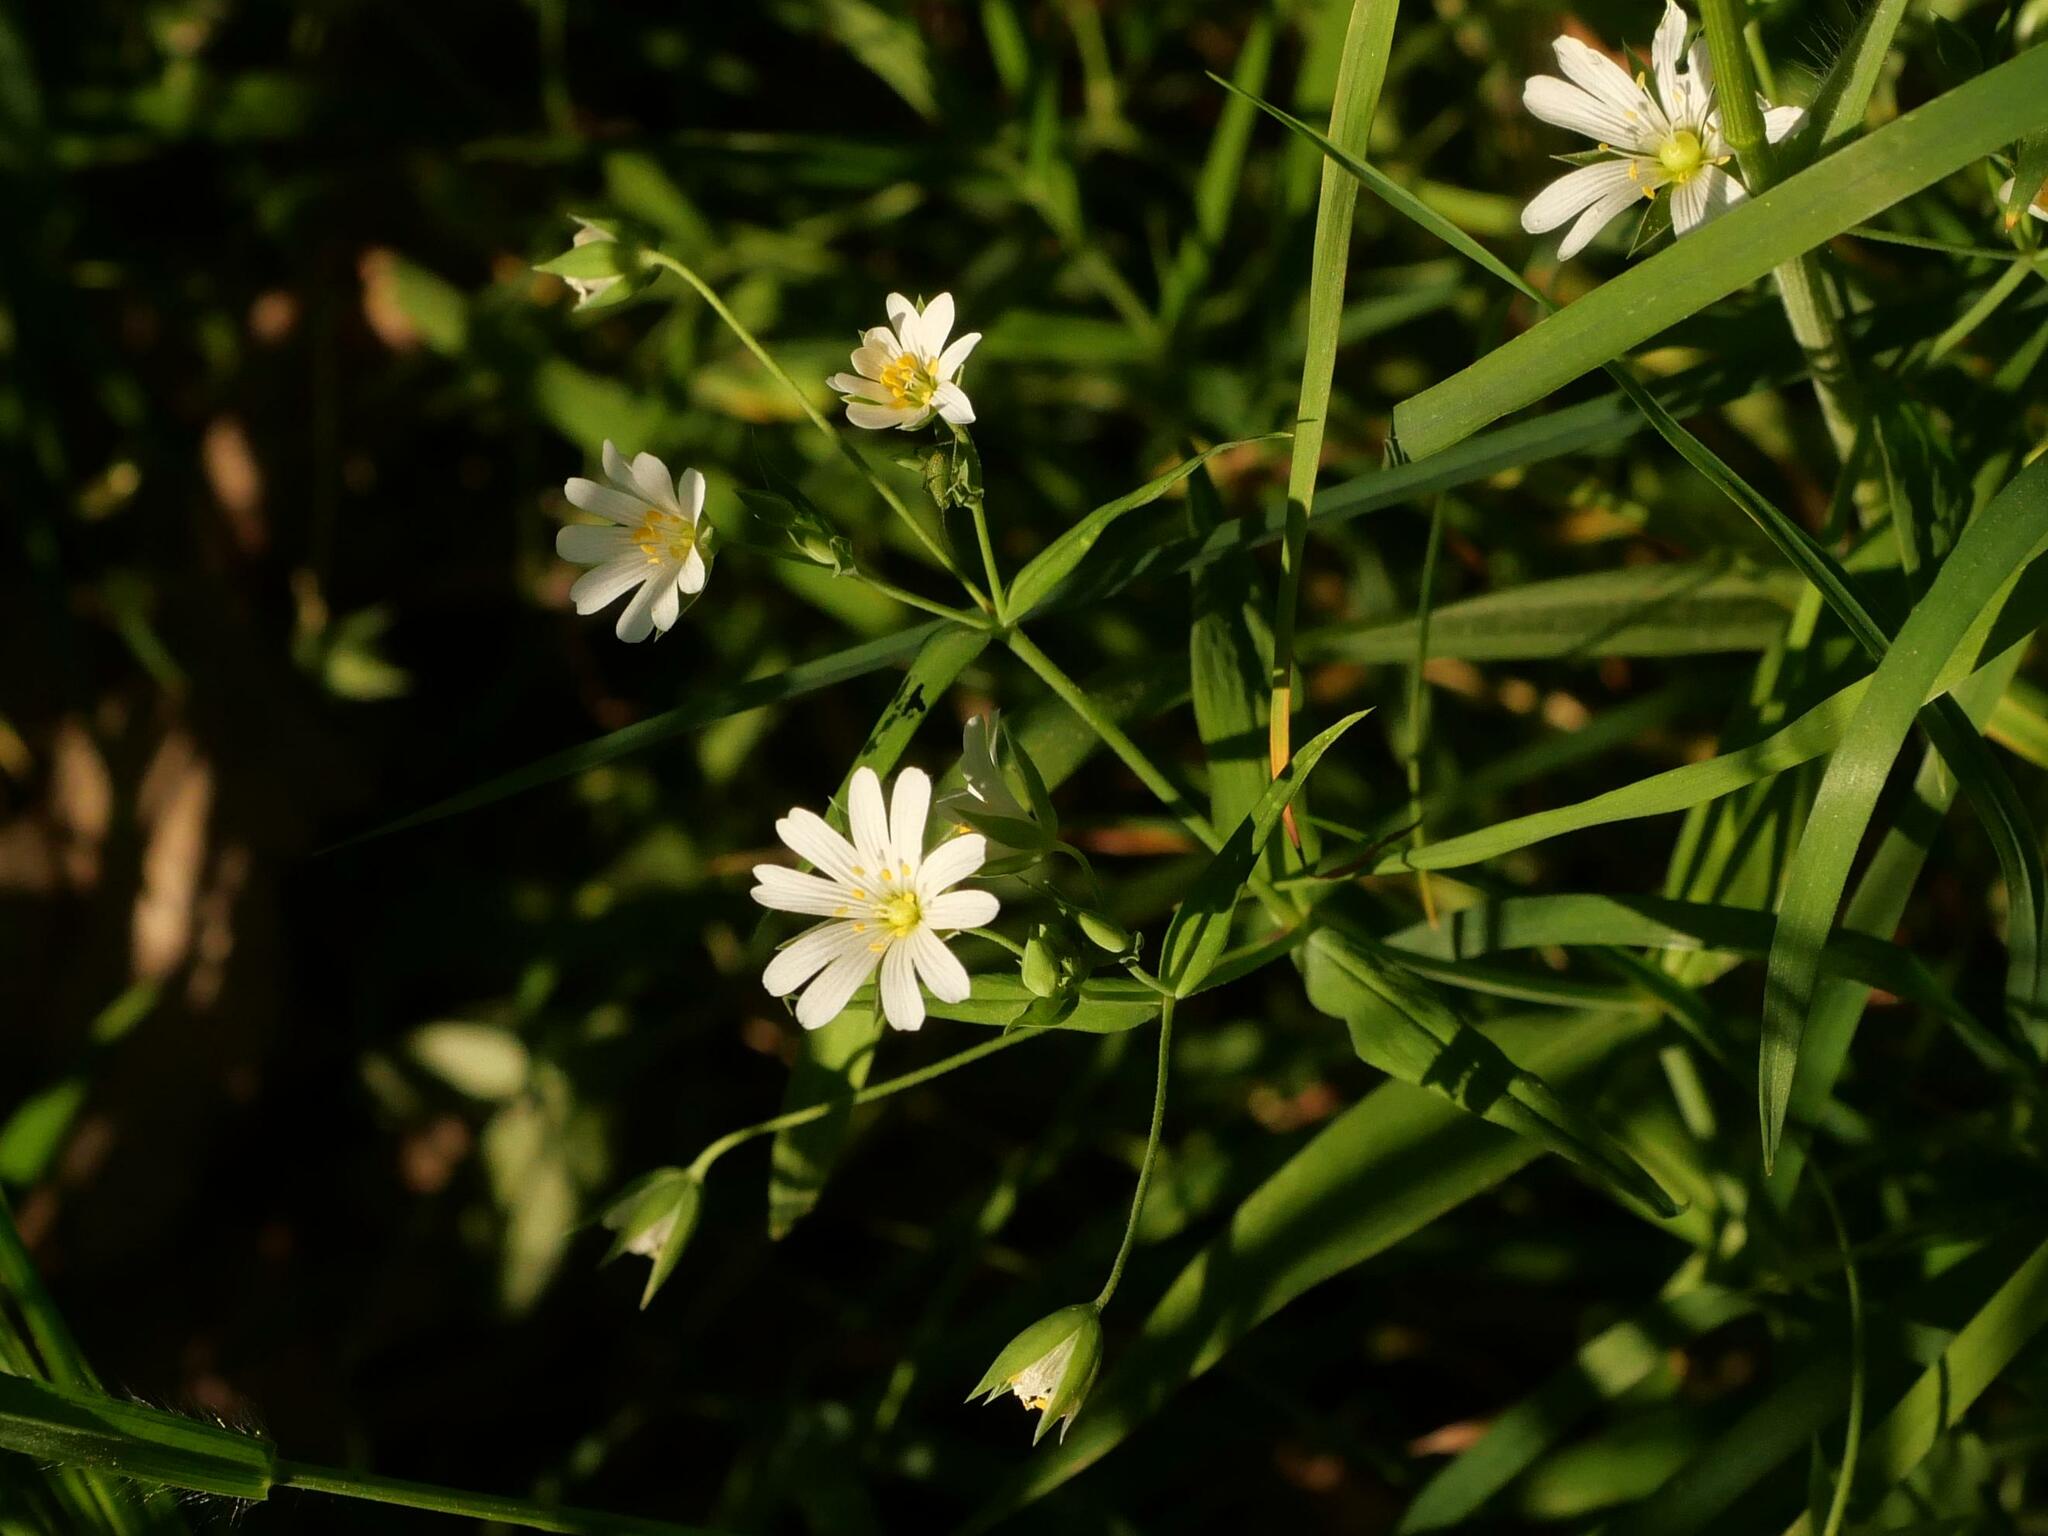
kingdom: Plantae
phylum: Tracheophyta
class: Magnoliopsida
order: Caryophyllales
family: Caryophyllaceae
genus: Rabelera
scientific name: Rabelera holostea
